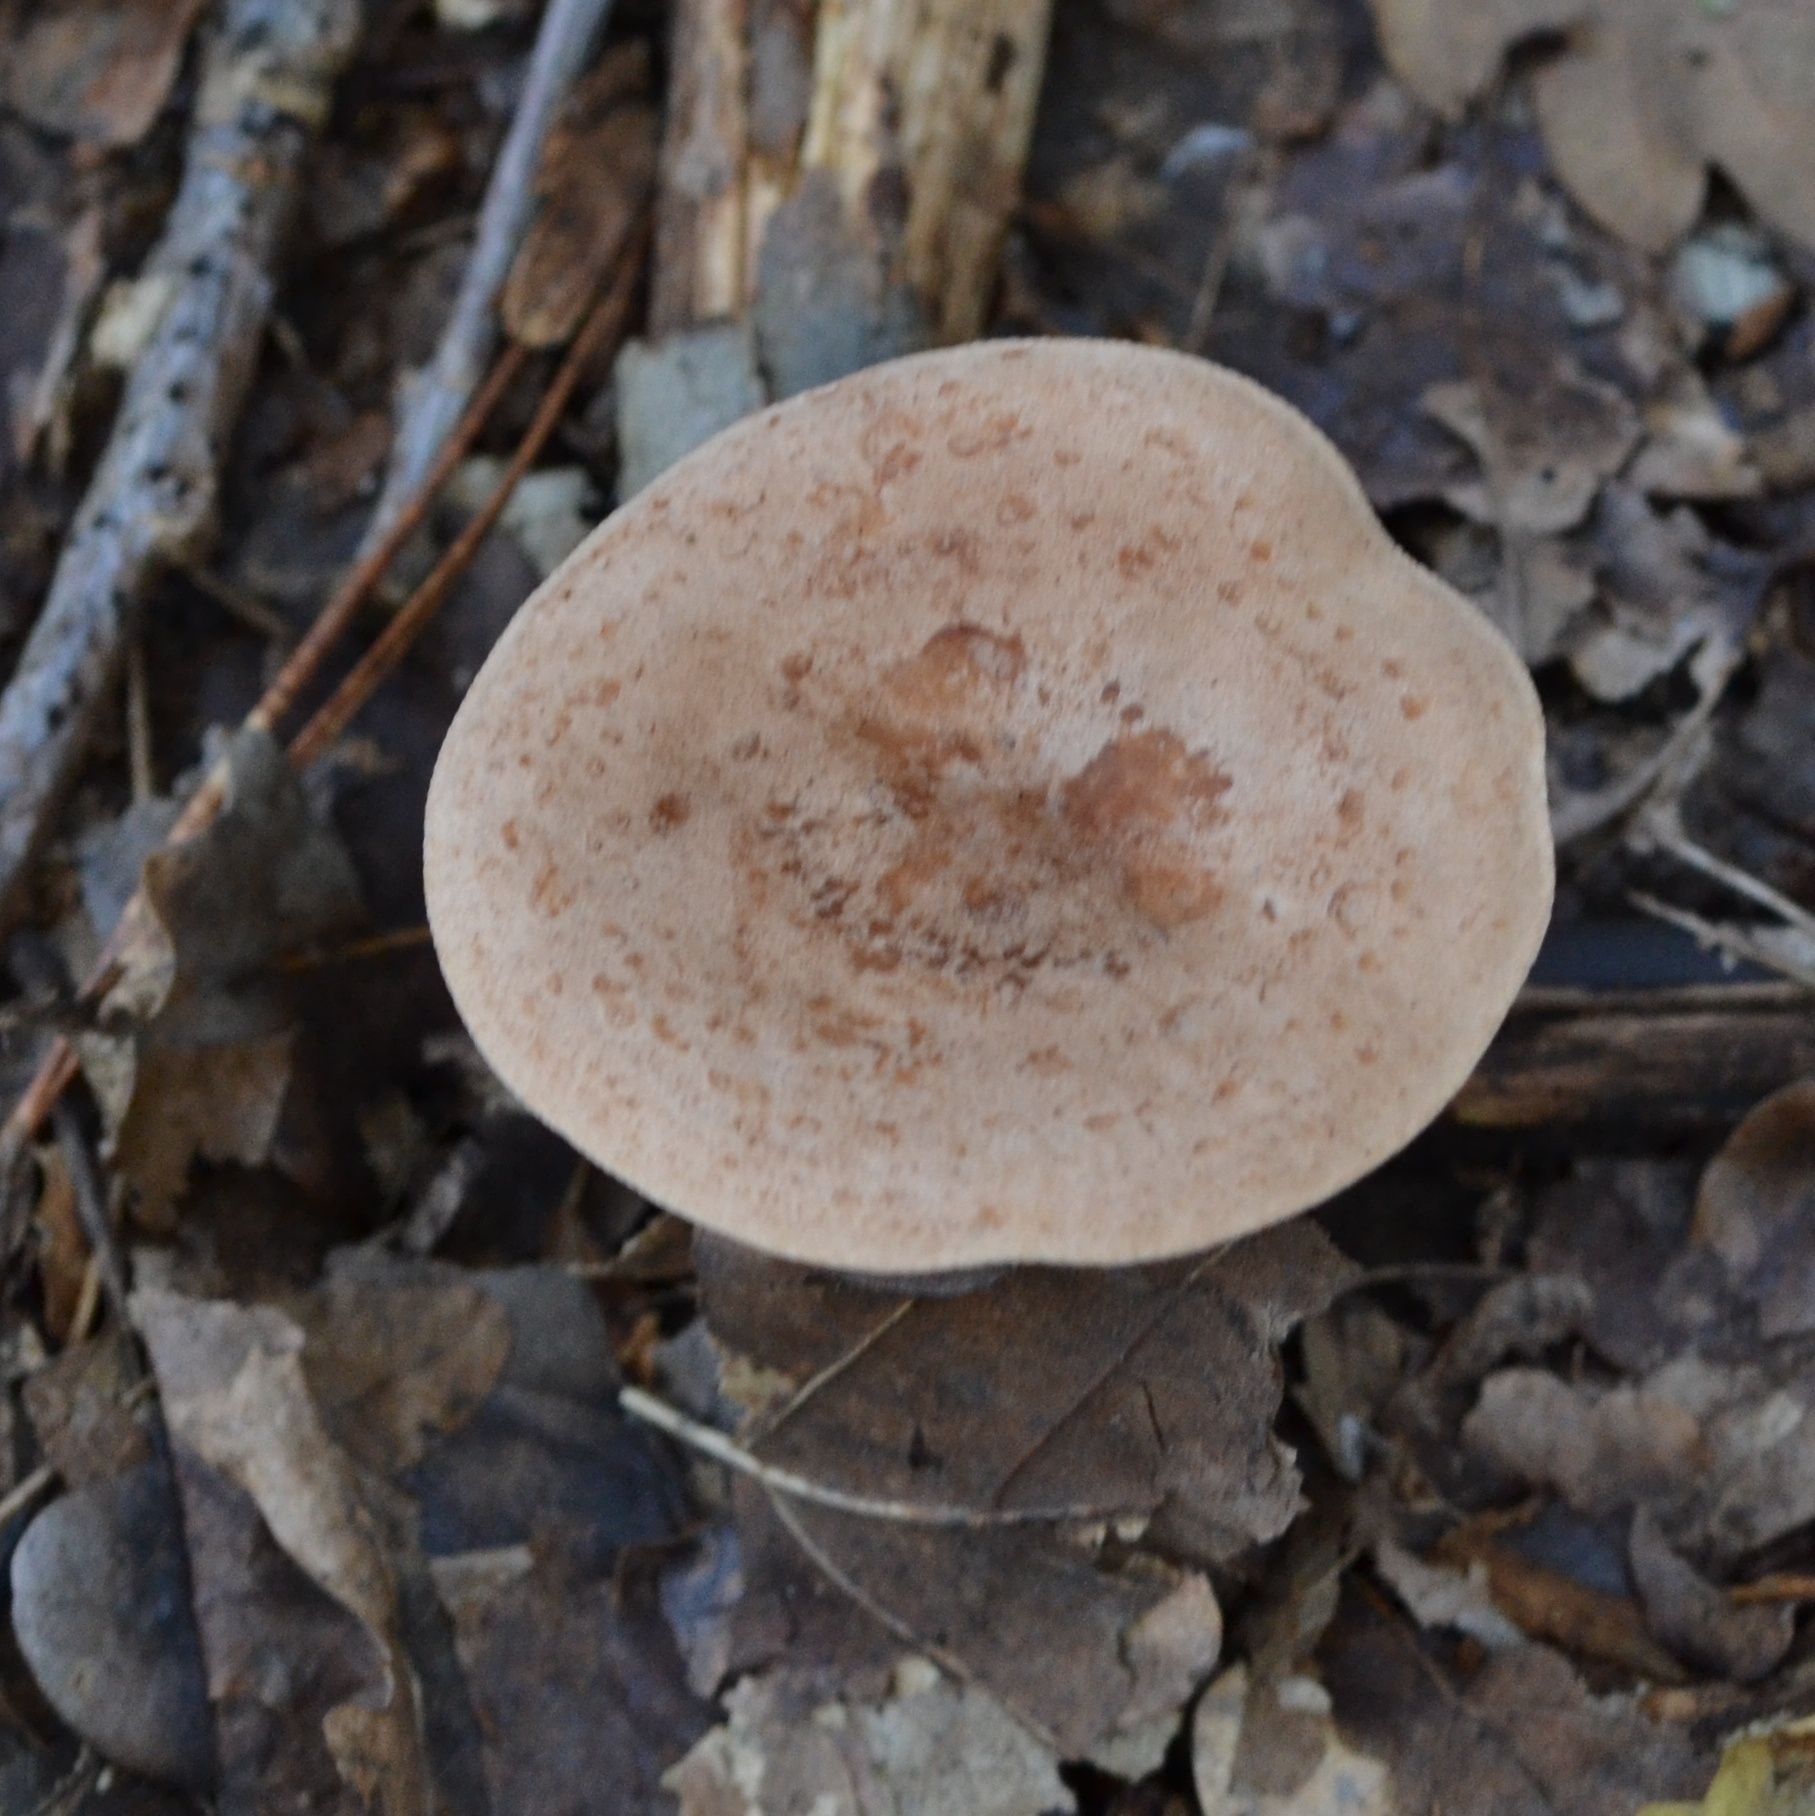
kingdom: Fungi
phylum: Basidiomycota
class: Agaricomycetes
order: Russulales
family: Russulaceae
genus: Lactarius
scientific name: Lactarius quietus
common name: Oak milk-cap
